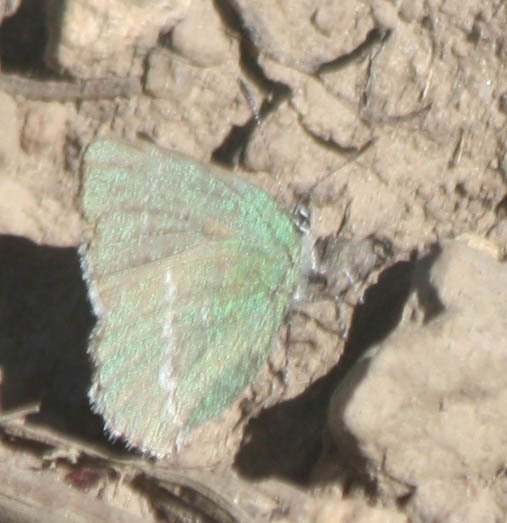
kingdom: Animalia
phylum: Arthropoda
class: Insecta
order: Lepidoptera
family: Lycaenidae
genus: Thecla
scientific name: Thecla sheridanii
